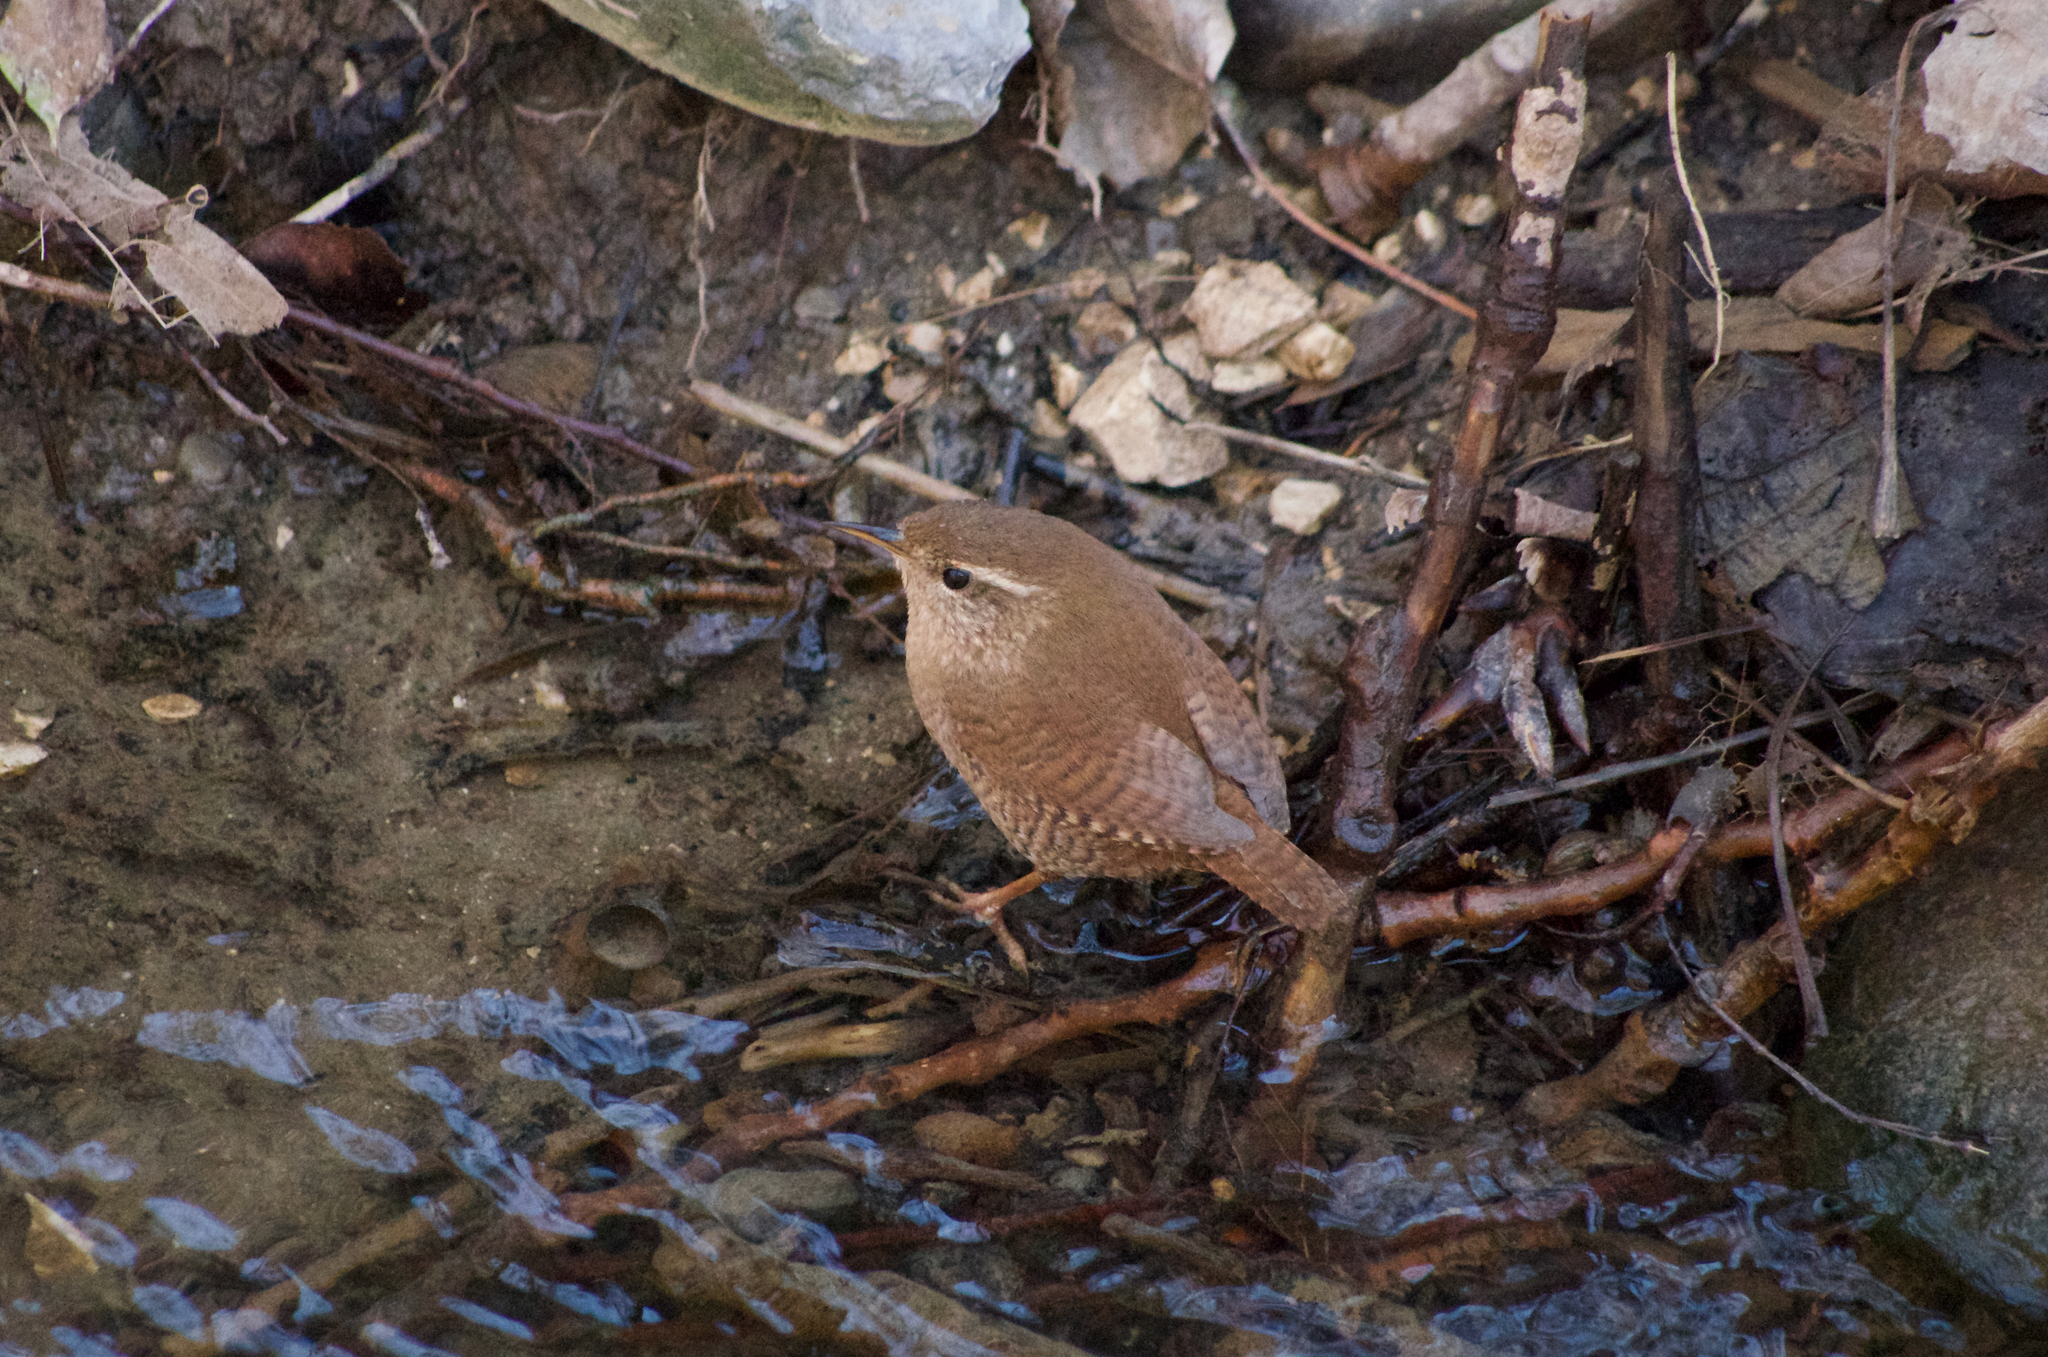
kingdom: Animalia
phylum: Chordata
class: Aves
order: Passeriformes
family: Troglodytidae
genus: Troglodytes
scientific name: Troglodytes troglodytes
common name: Eurasian wren
